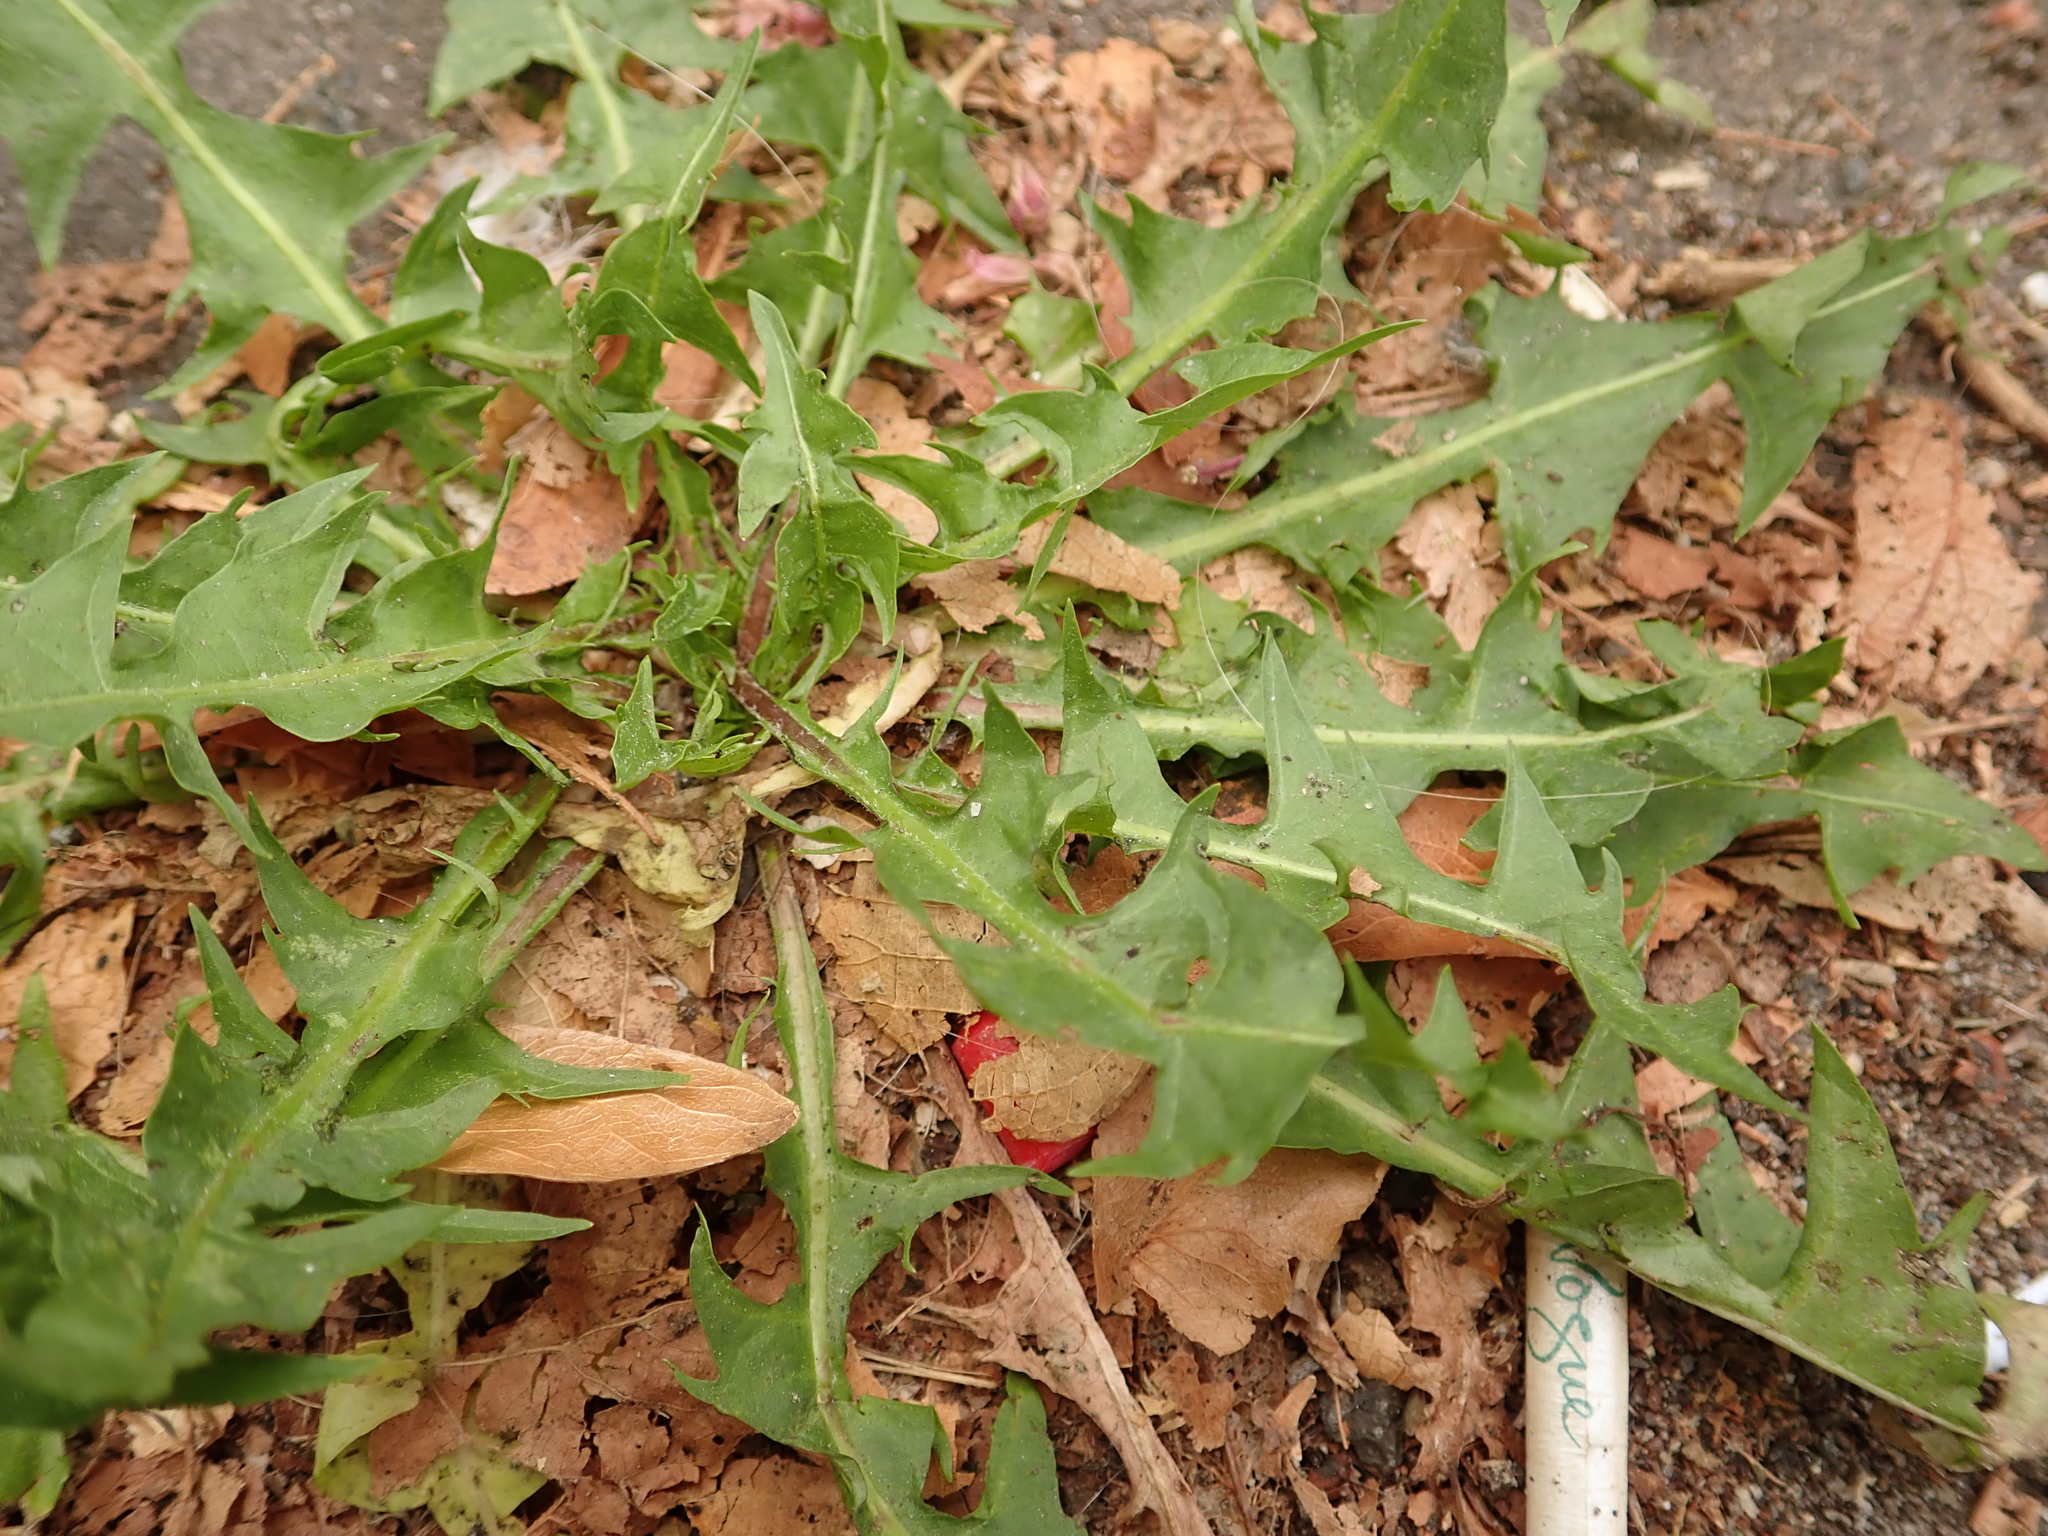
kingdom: Plantae
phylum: Tracheophyta
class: Magnoliopsida
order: Asterales
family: Asteraceae
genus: Taraxacum
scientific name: Taraxacum officinale
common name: Common dandelion
